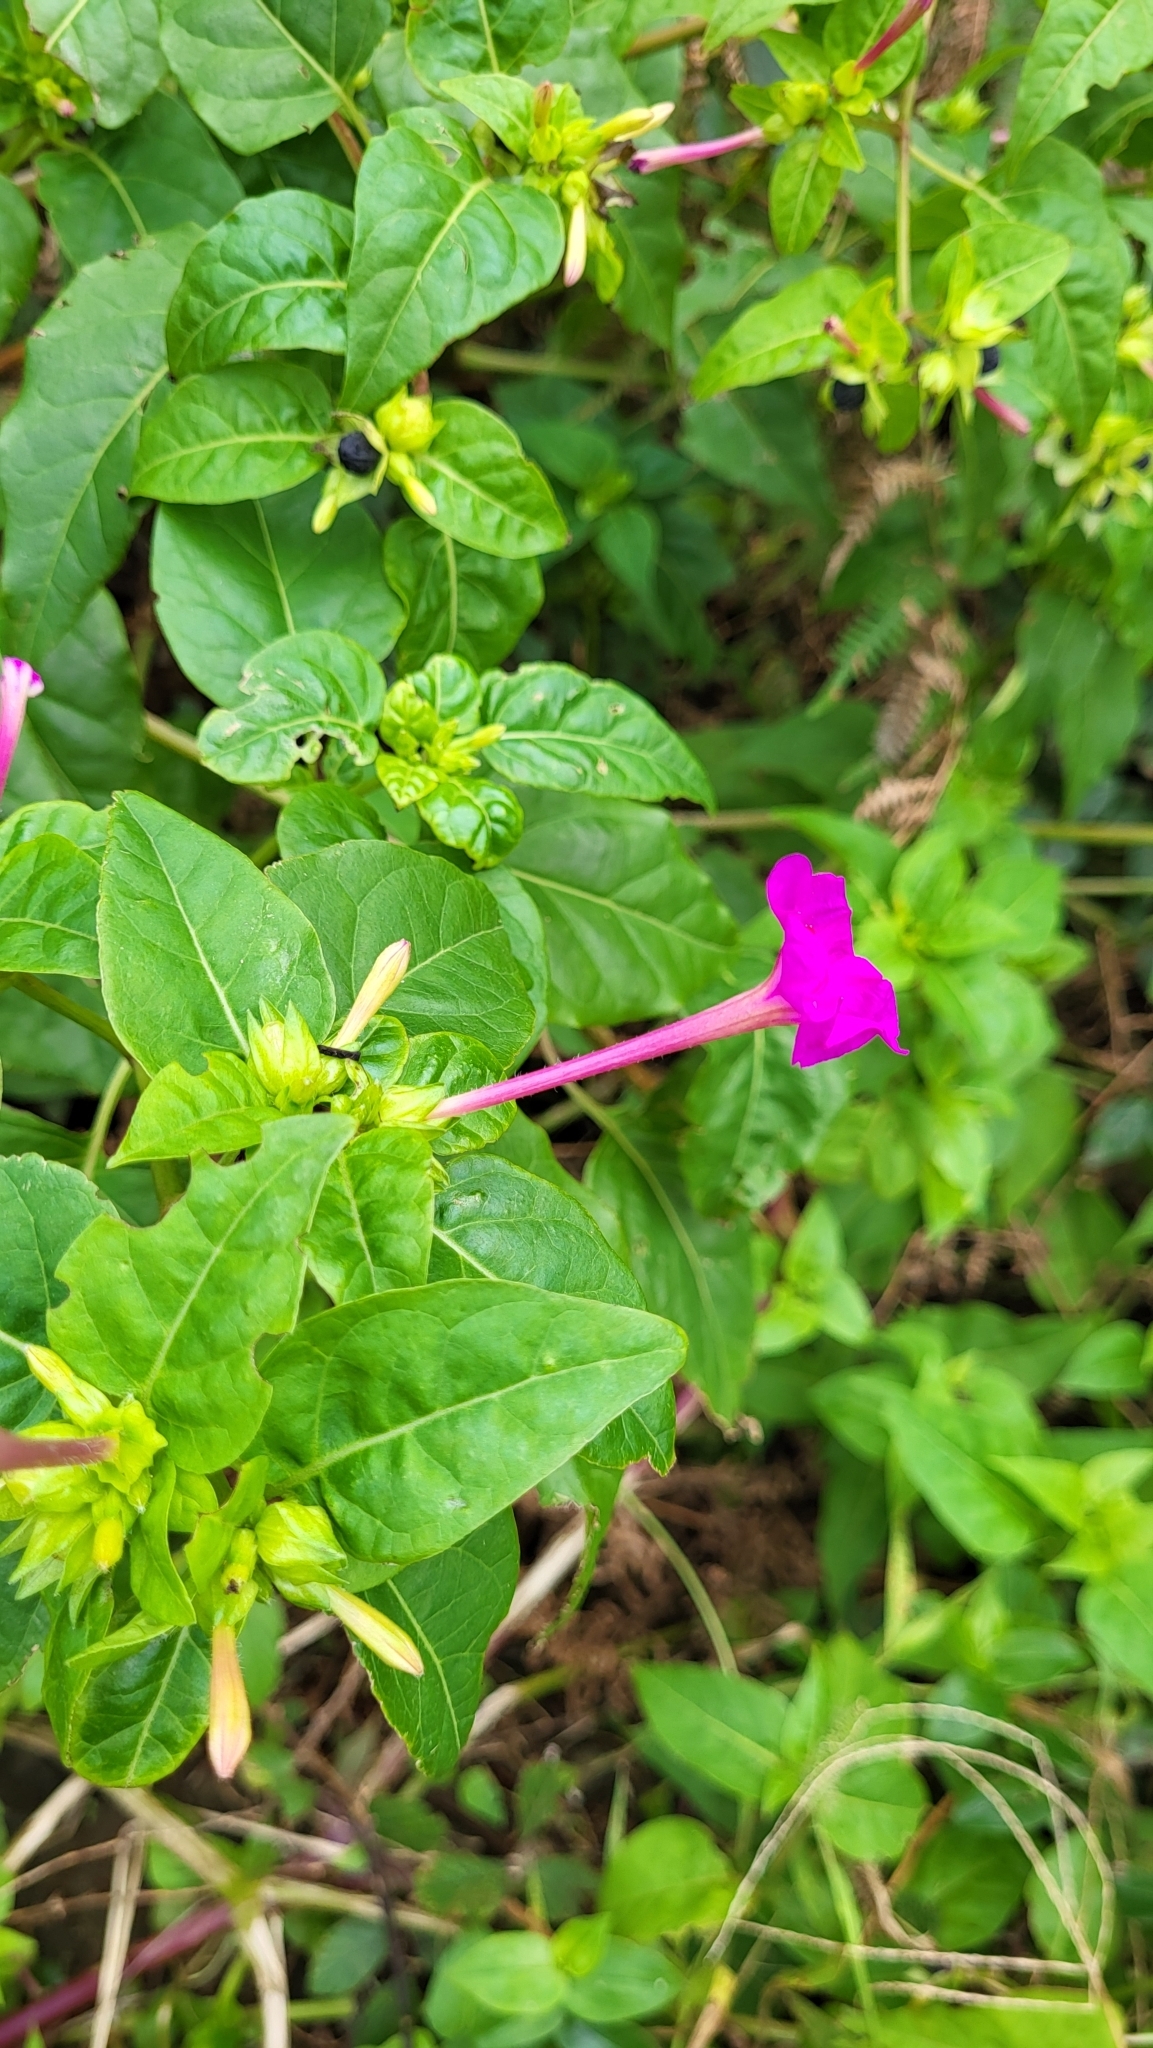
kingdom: Plantae
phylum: Tracheophyta
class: Magnoliopsida
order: Caryophyllales
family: Nyctaginaceae
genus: Mirabilis
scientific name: Mirabilis jalapa
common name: Marvel-of-peru
